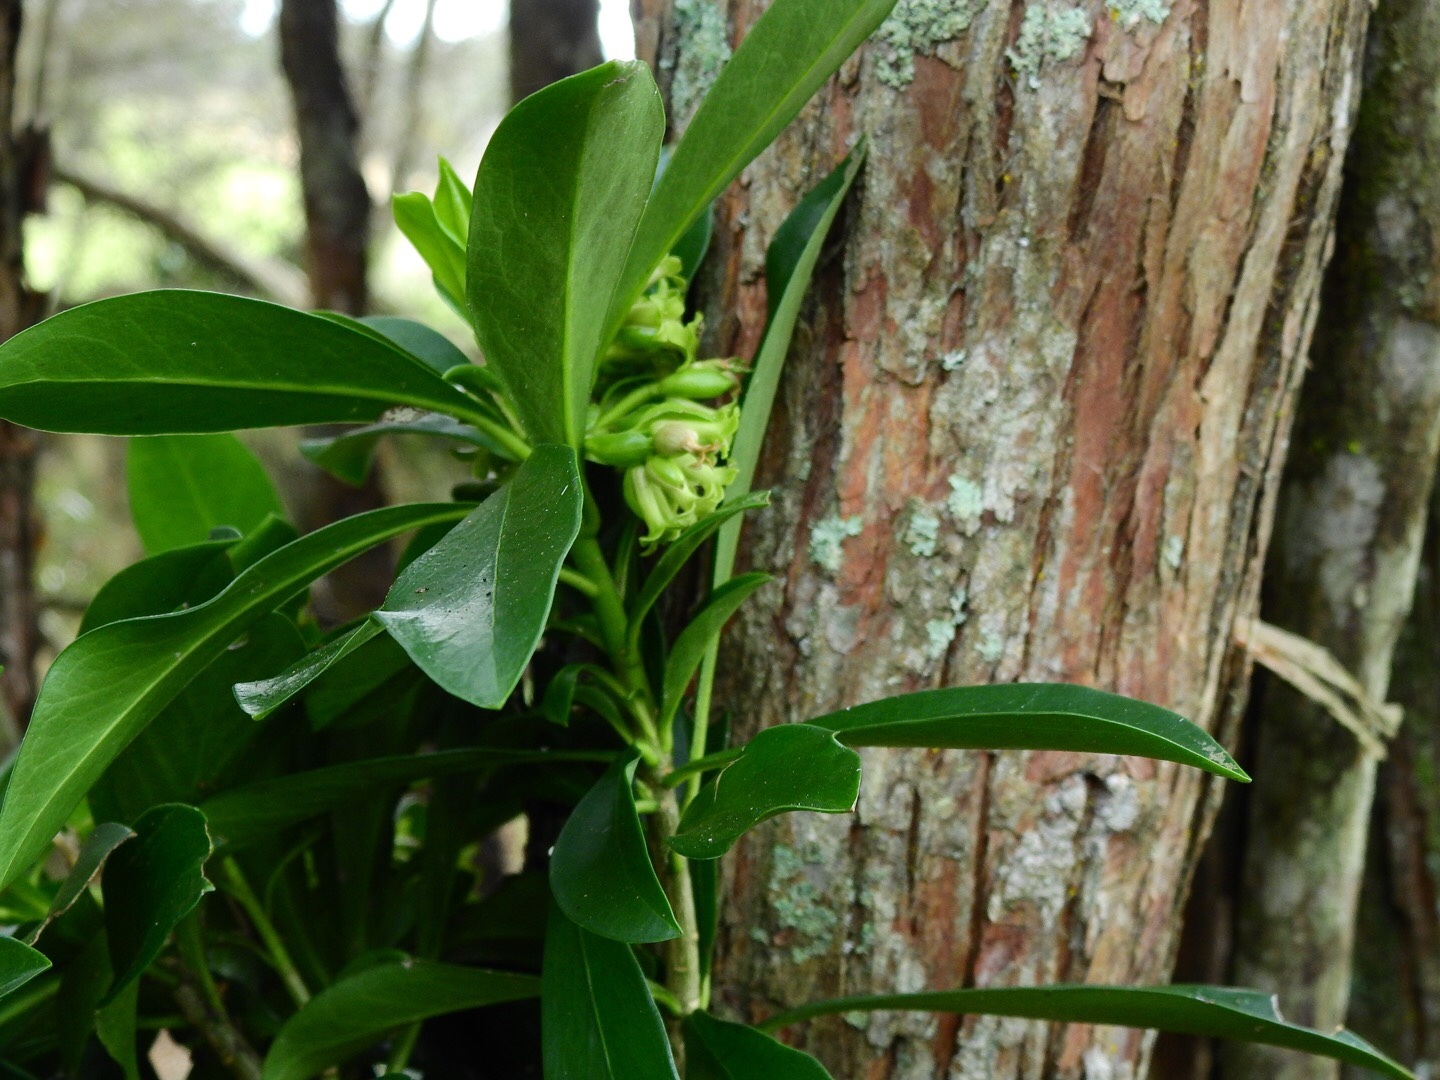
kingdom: Plantae
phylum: Tracheophyta
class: Magnoliopsida
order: Malvales
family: Thymelaeaceae
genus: Daphne
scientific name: Daphne laureola
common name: Spurge-laurel
